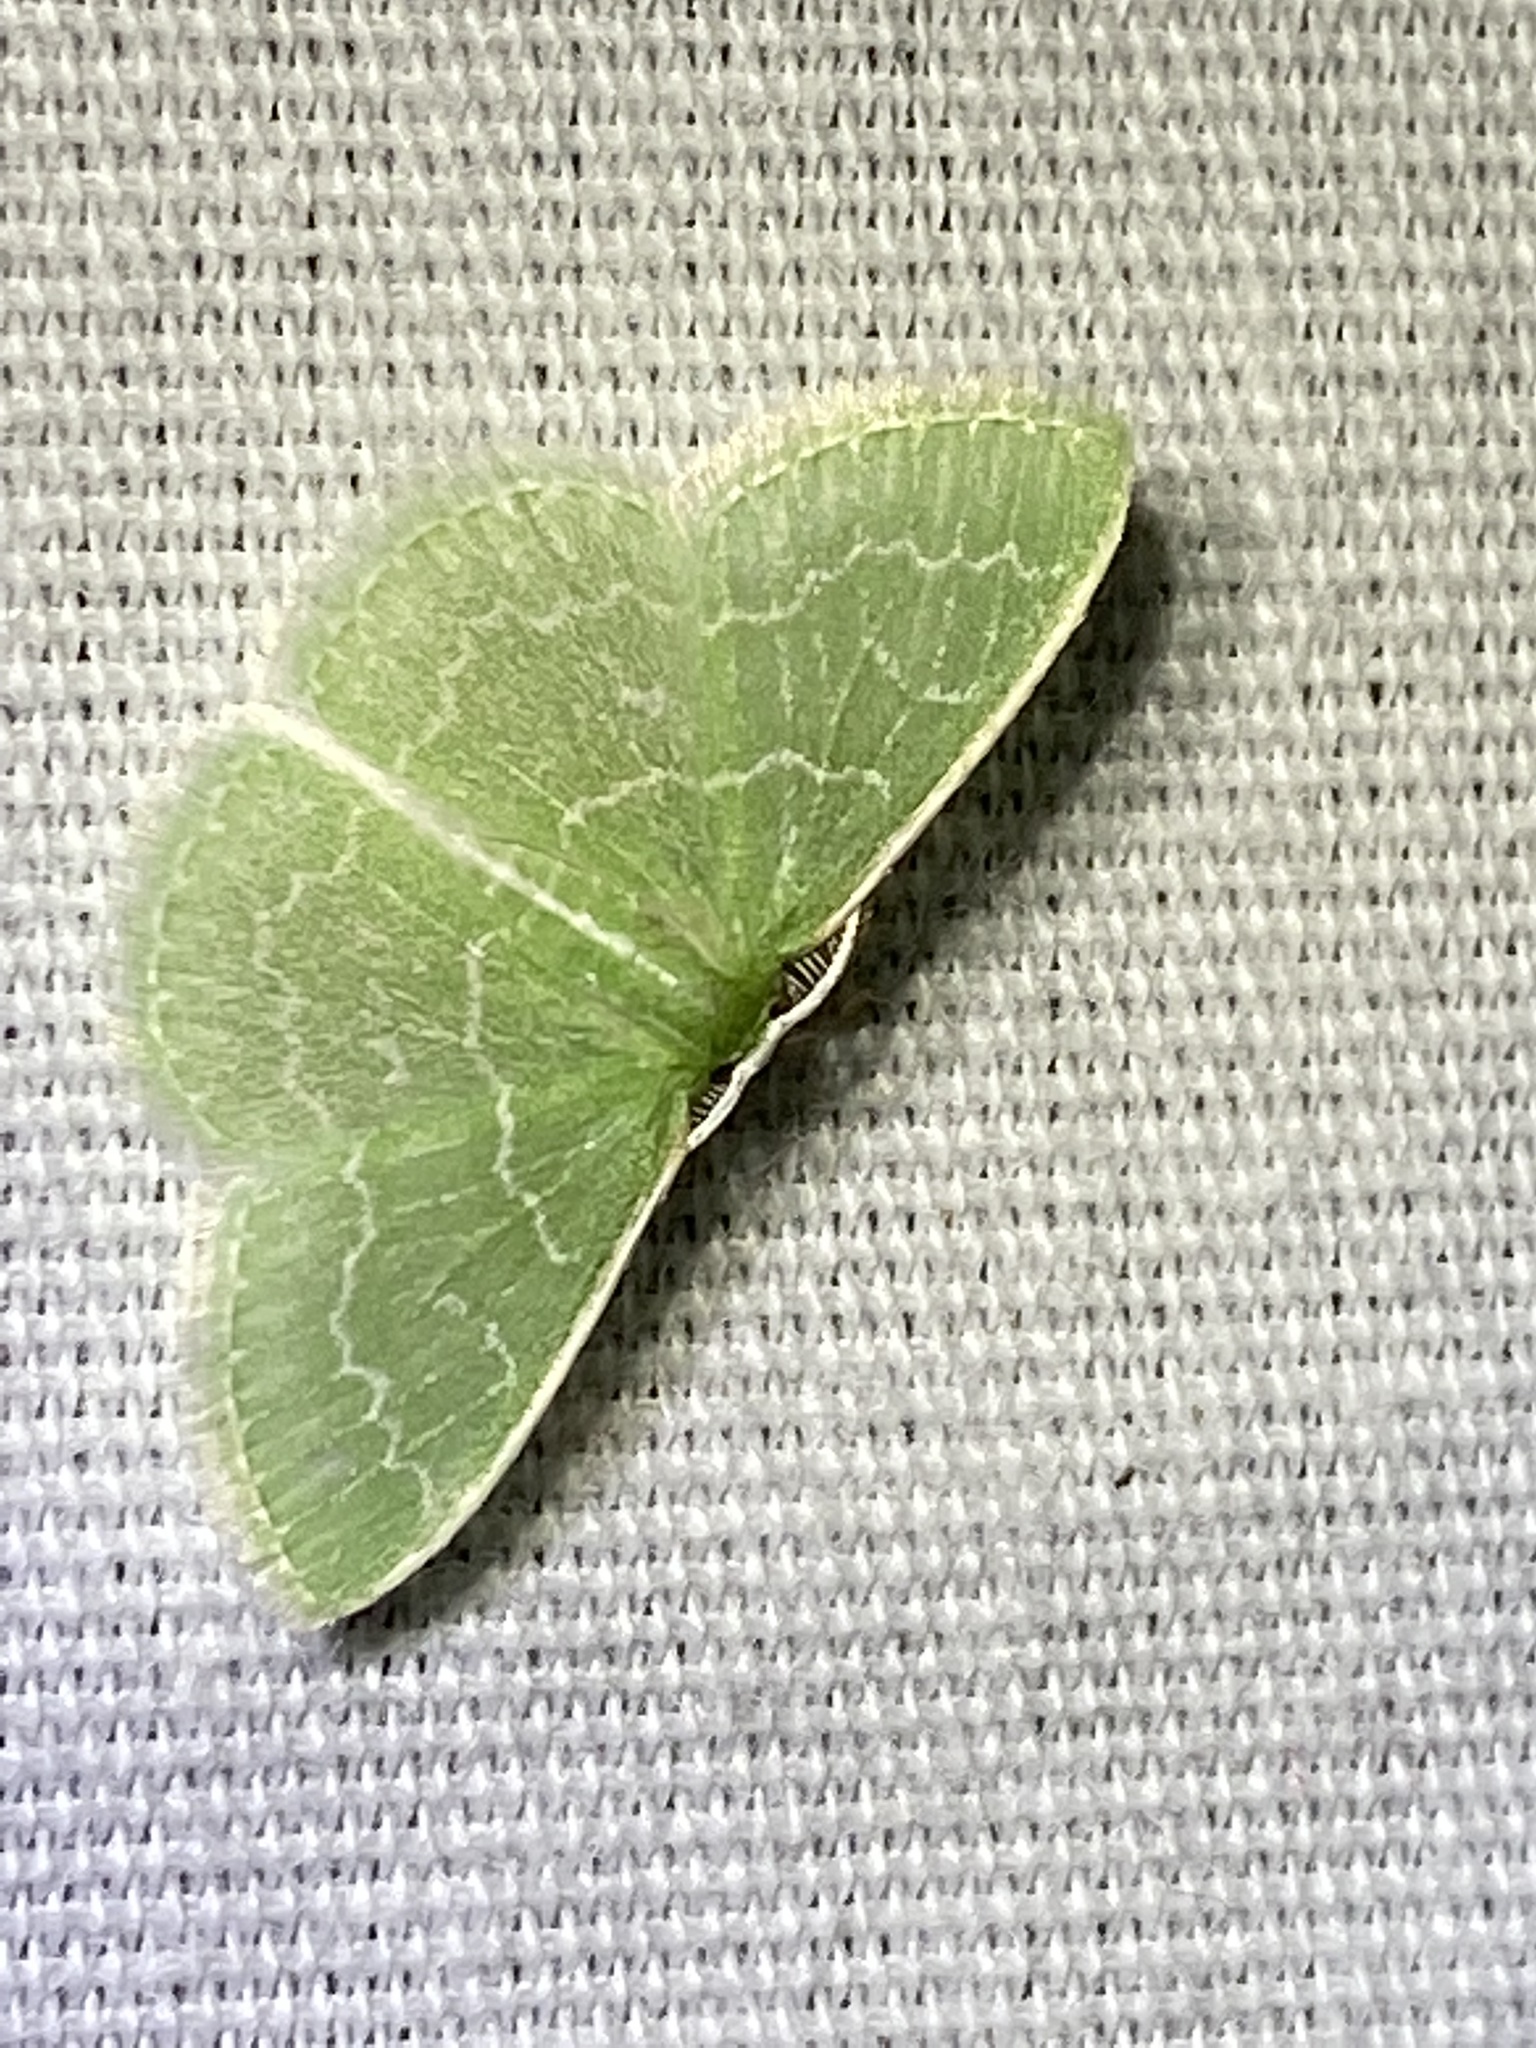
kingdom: Animalia
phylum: Arthropoda
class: Insecta
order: Lepidoptera
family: Geometridae
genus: Synchlora
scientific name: Synchlora frondaria
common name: Southern emerald
